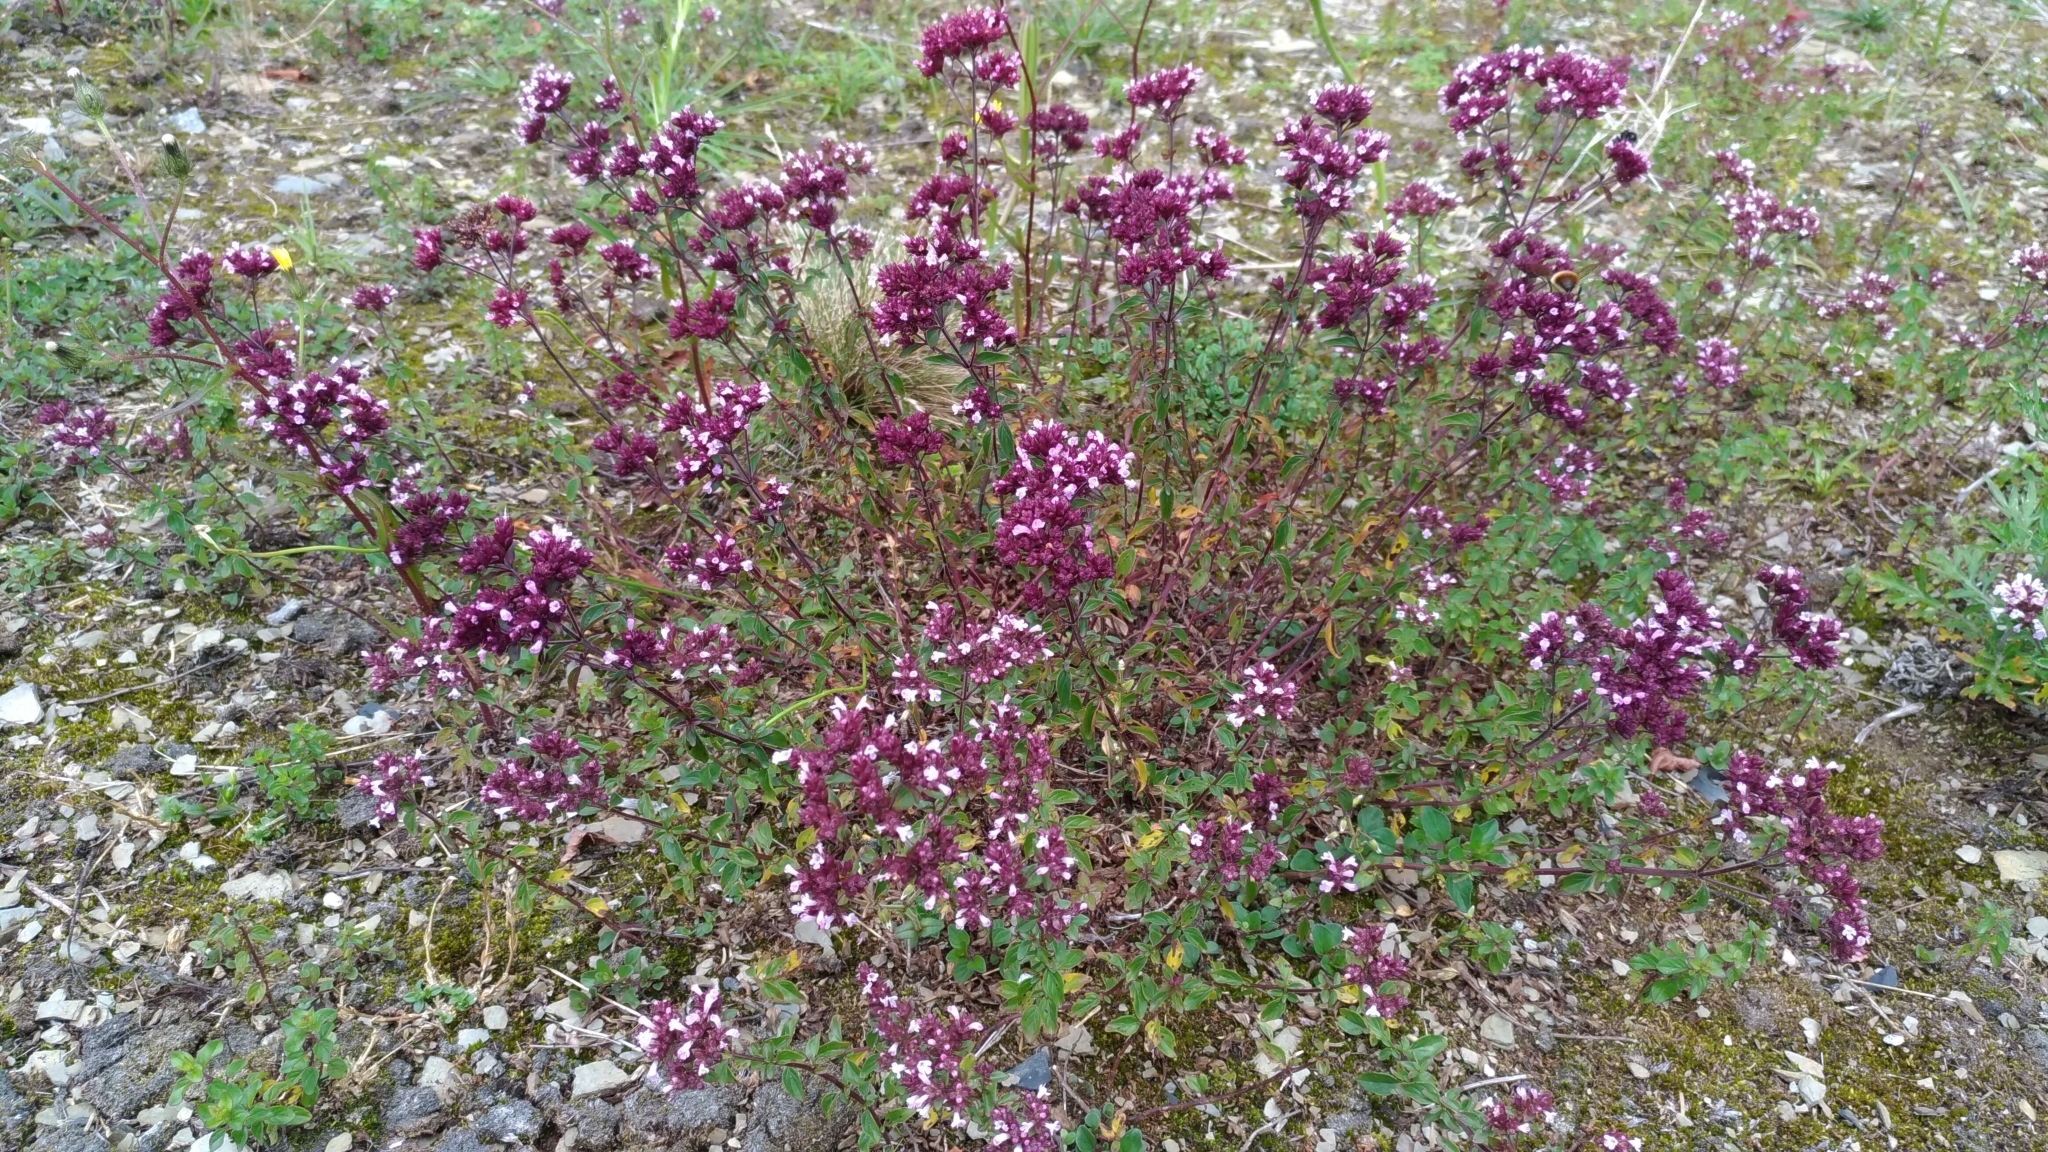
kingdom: Plantae
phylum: Tracheophyta
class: Magnoliopsida
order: Lamiales
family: Lamiaceae
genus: Origanum
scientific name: Origanum vulgare
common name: Wild marjoram
